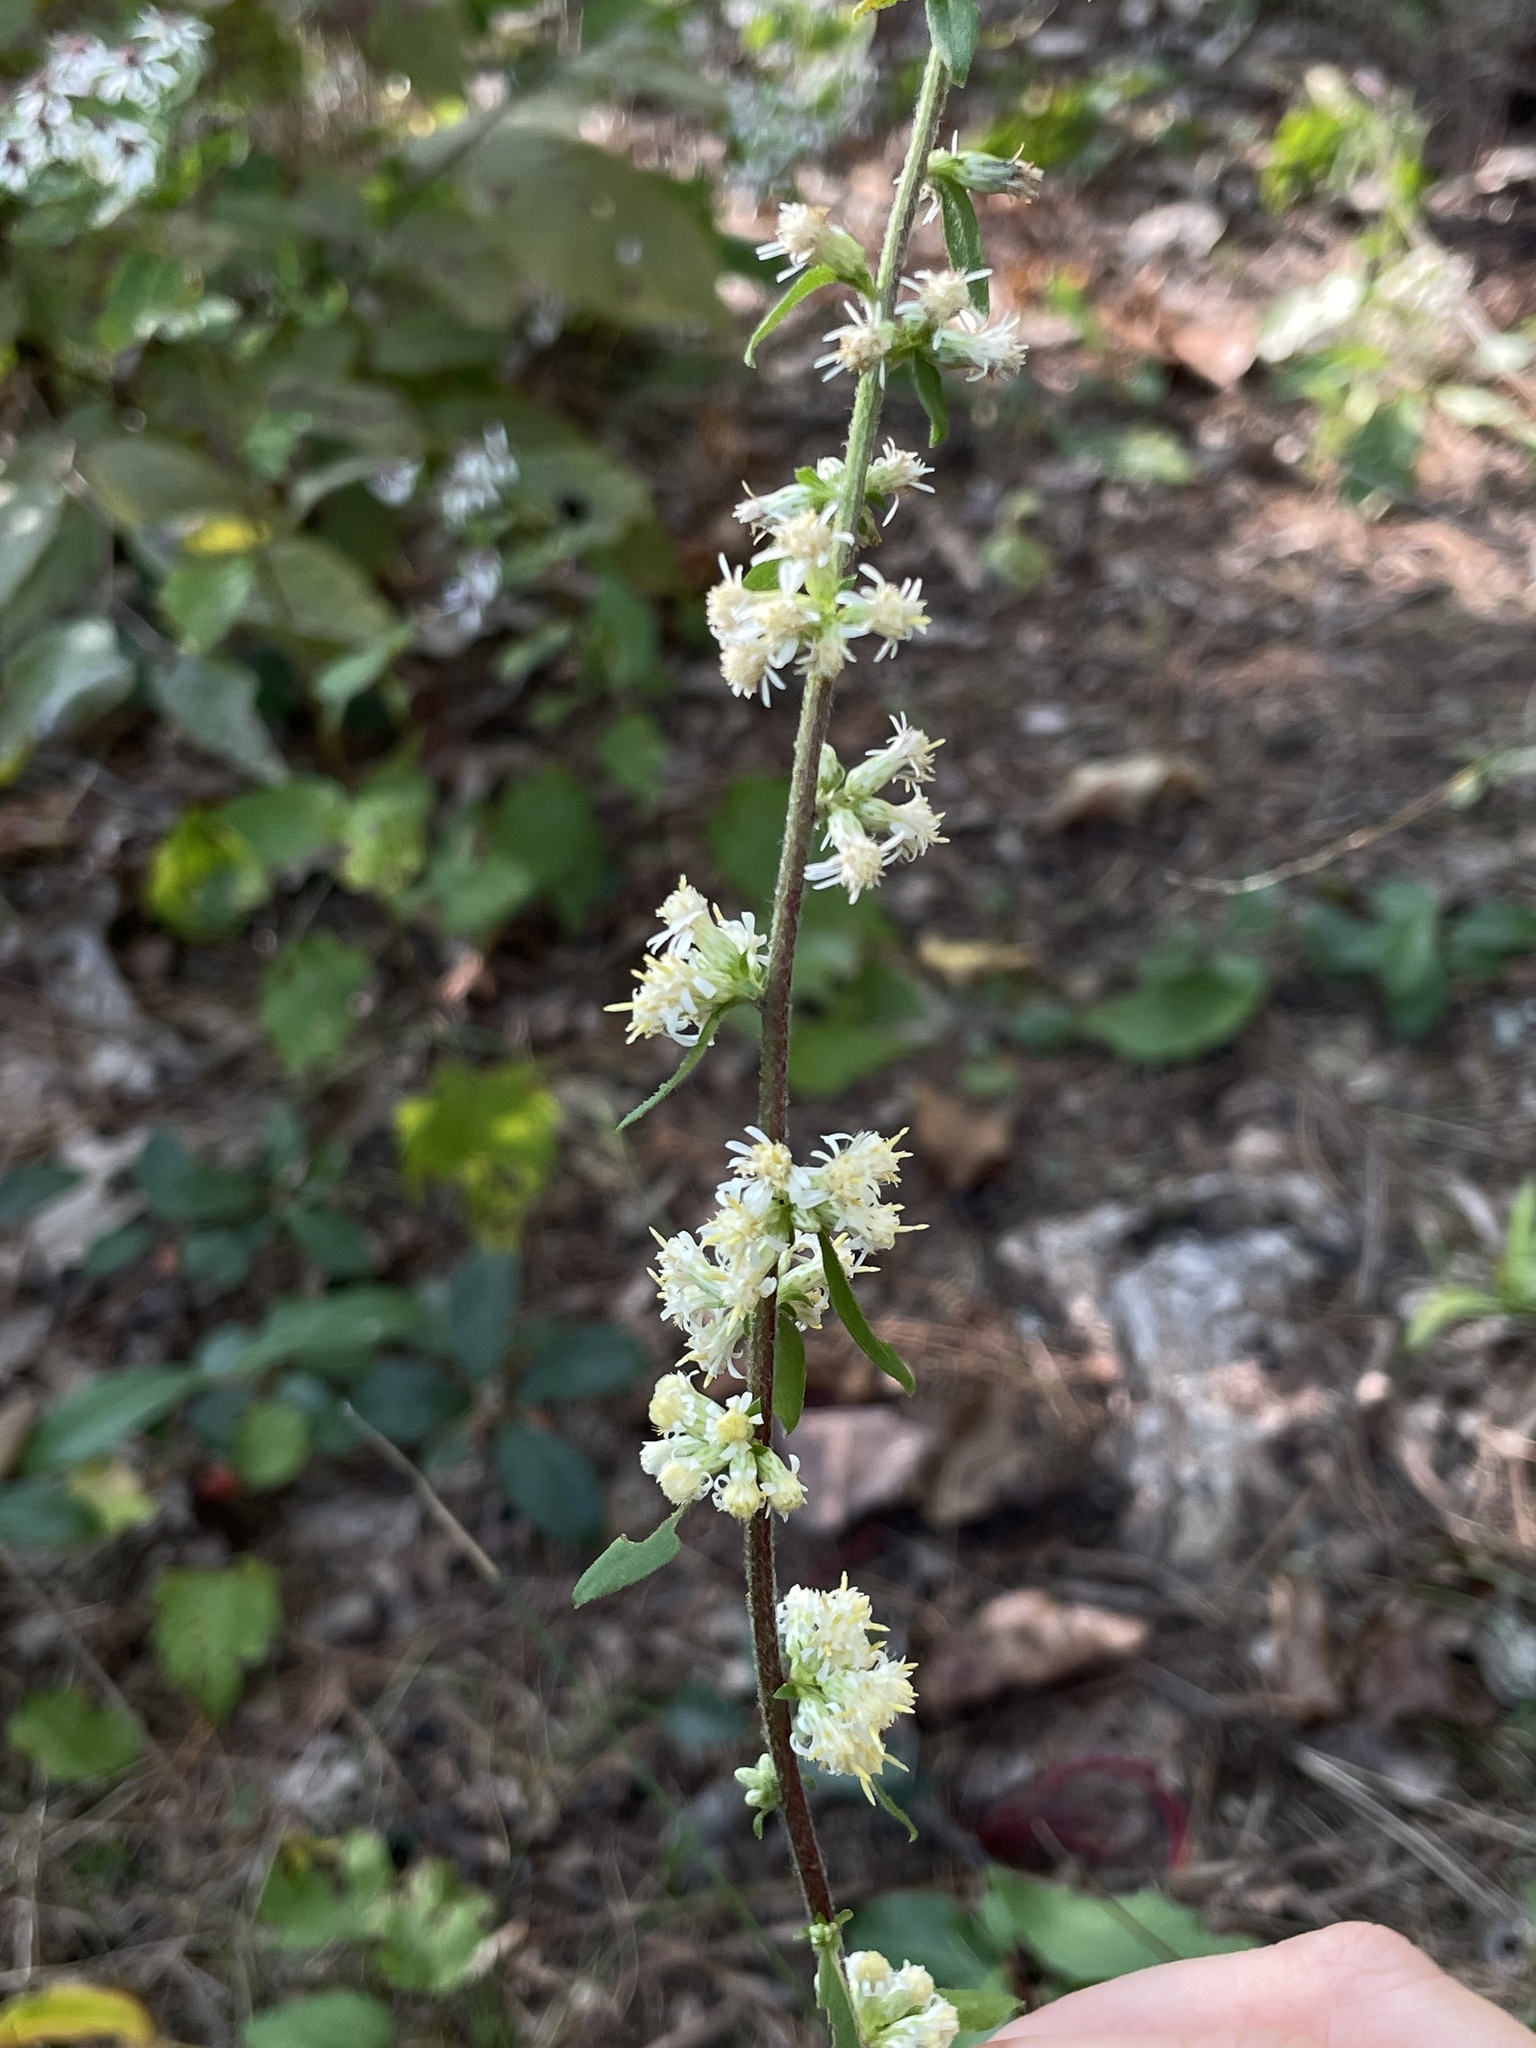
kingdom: Plantae
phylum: Tracheophyta
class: Magnoliopsida
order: Asterales
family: Asteraceae
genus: Solidago
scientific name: Solidago bicolor
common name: Silverrod
